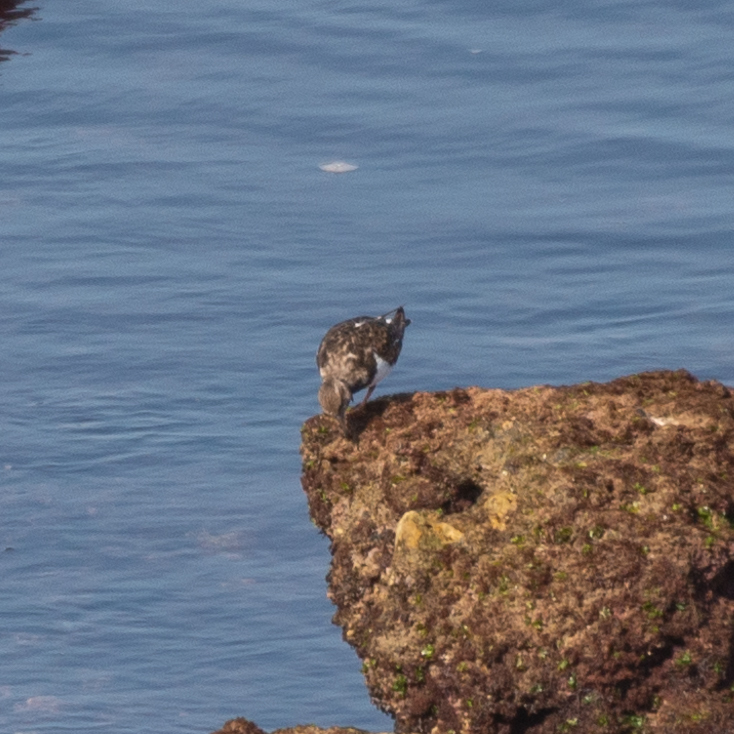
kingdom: Animalia
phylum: Chordata
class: Aves
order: Charadriiformes
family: Scolopacidae
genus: Arenaria
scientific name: Arenaria interpres
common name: Ruddy turnstone
